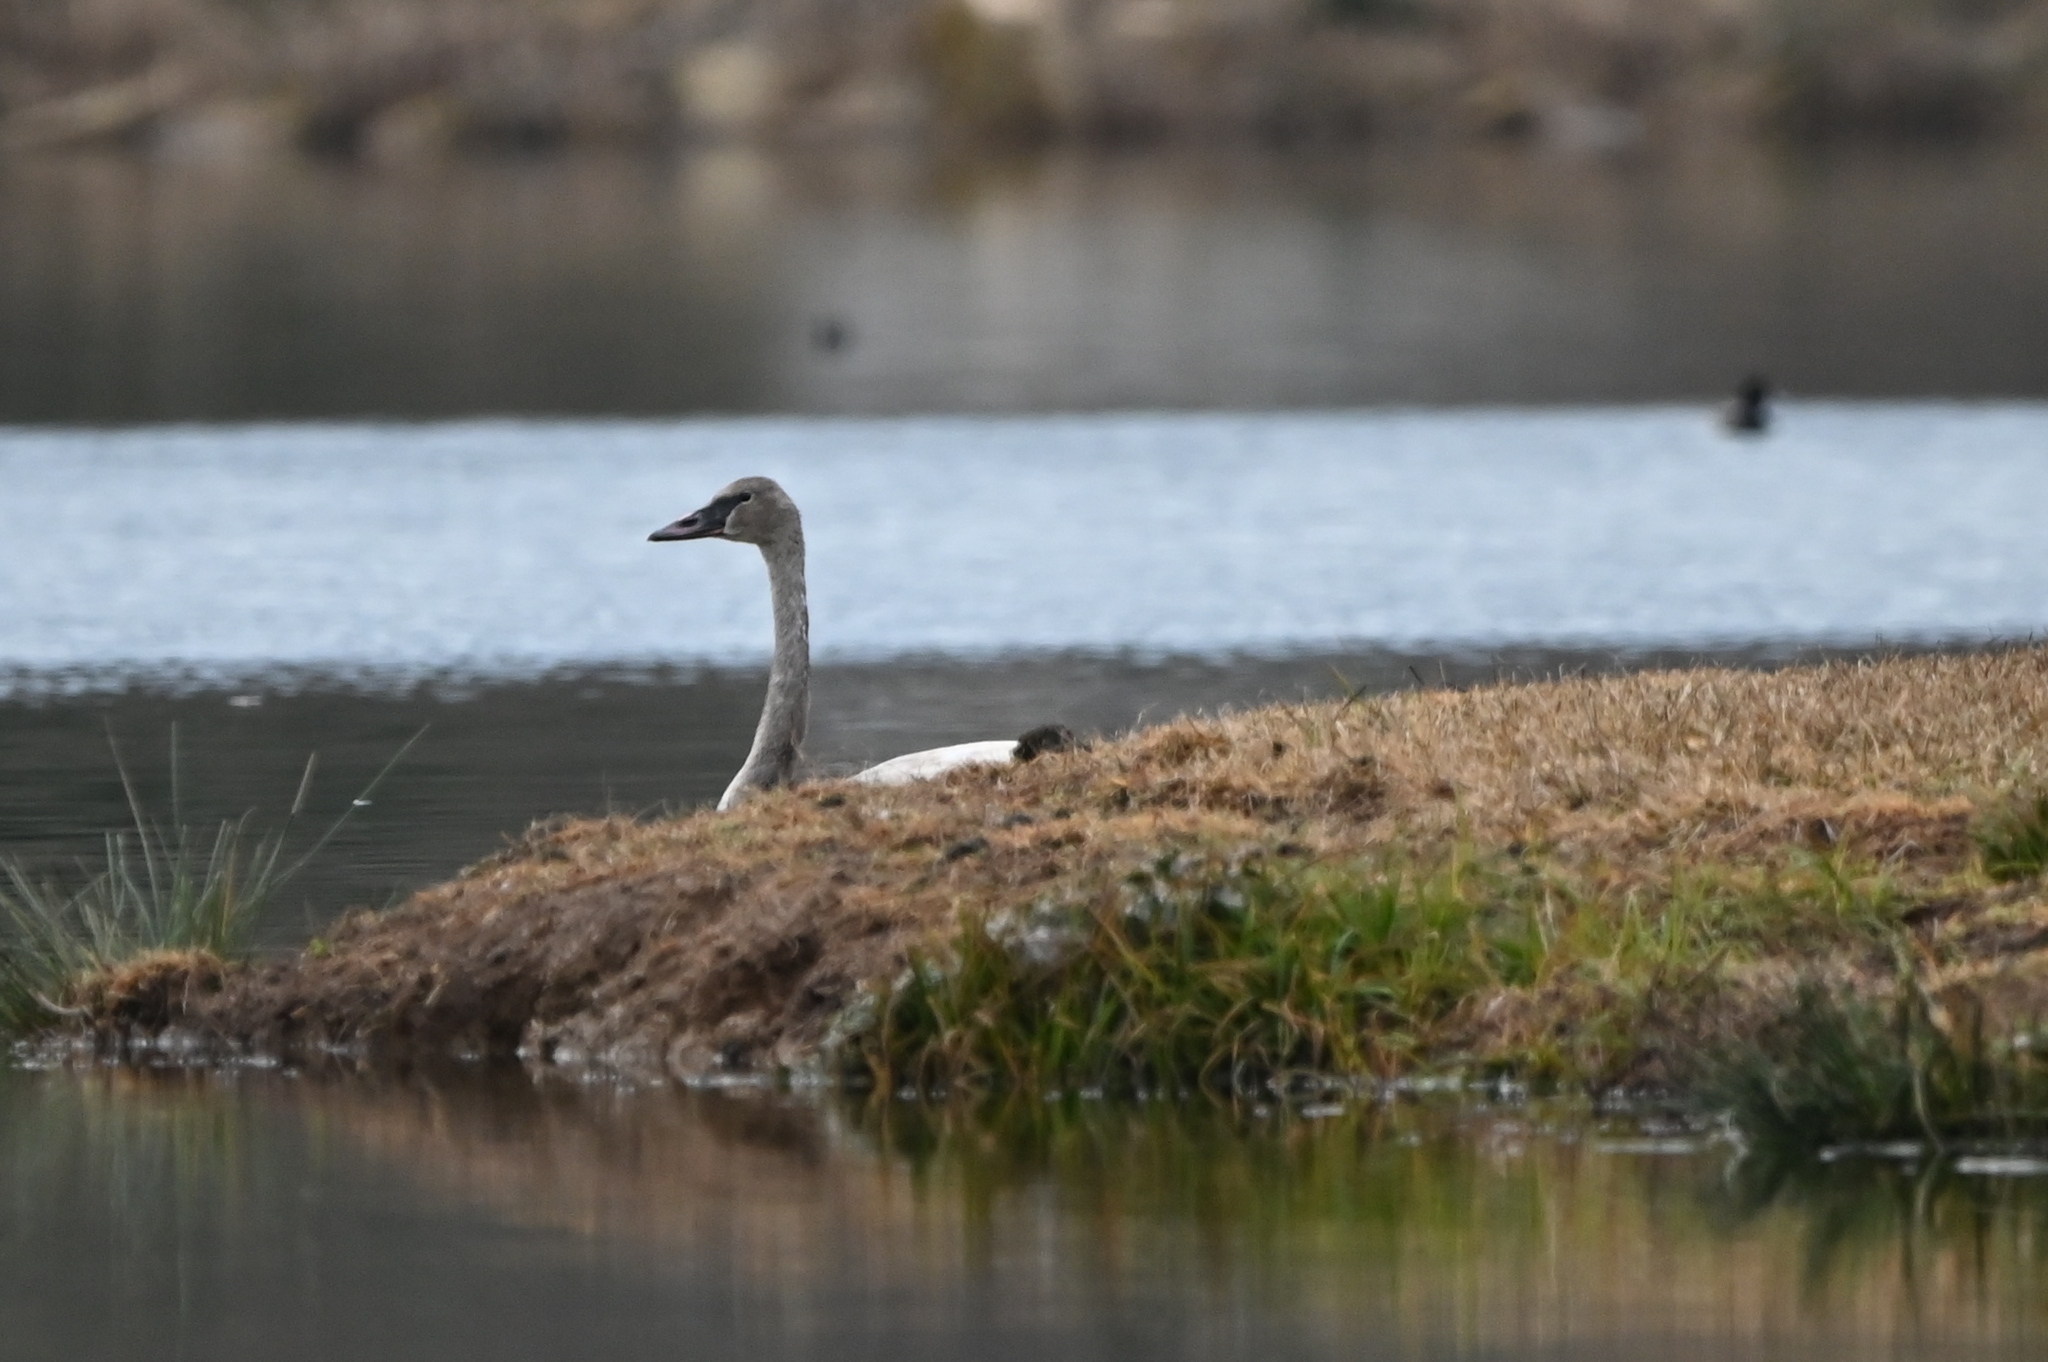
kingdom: Animalia
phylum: Chordata
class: Aves
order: Anseriformes
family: Anatidae
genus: Cygnus
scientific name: Cygnus buccinator
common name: Trumpeter swan
